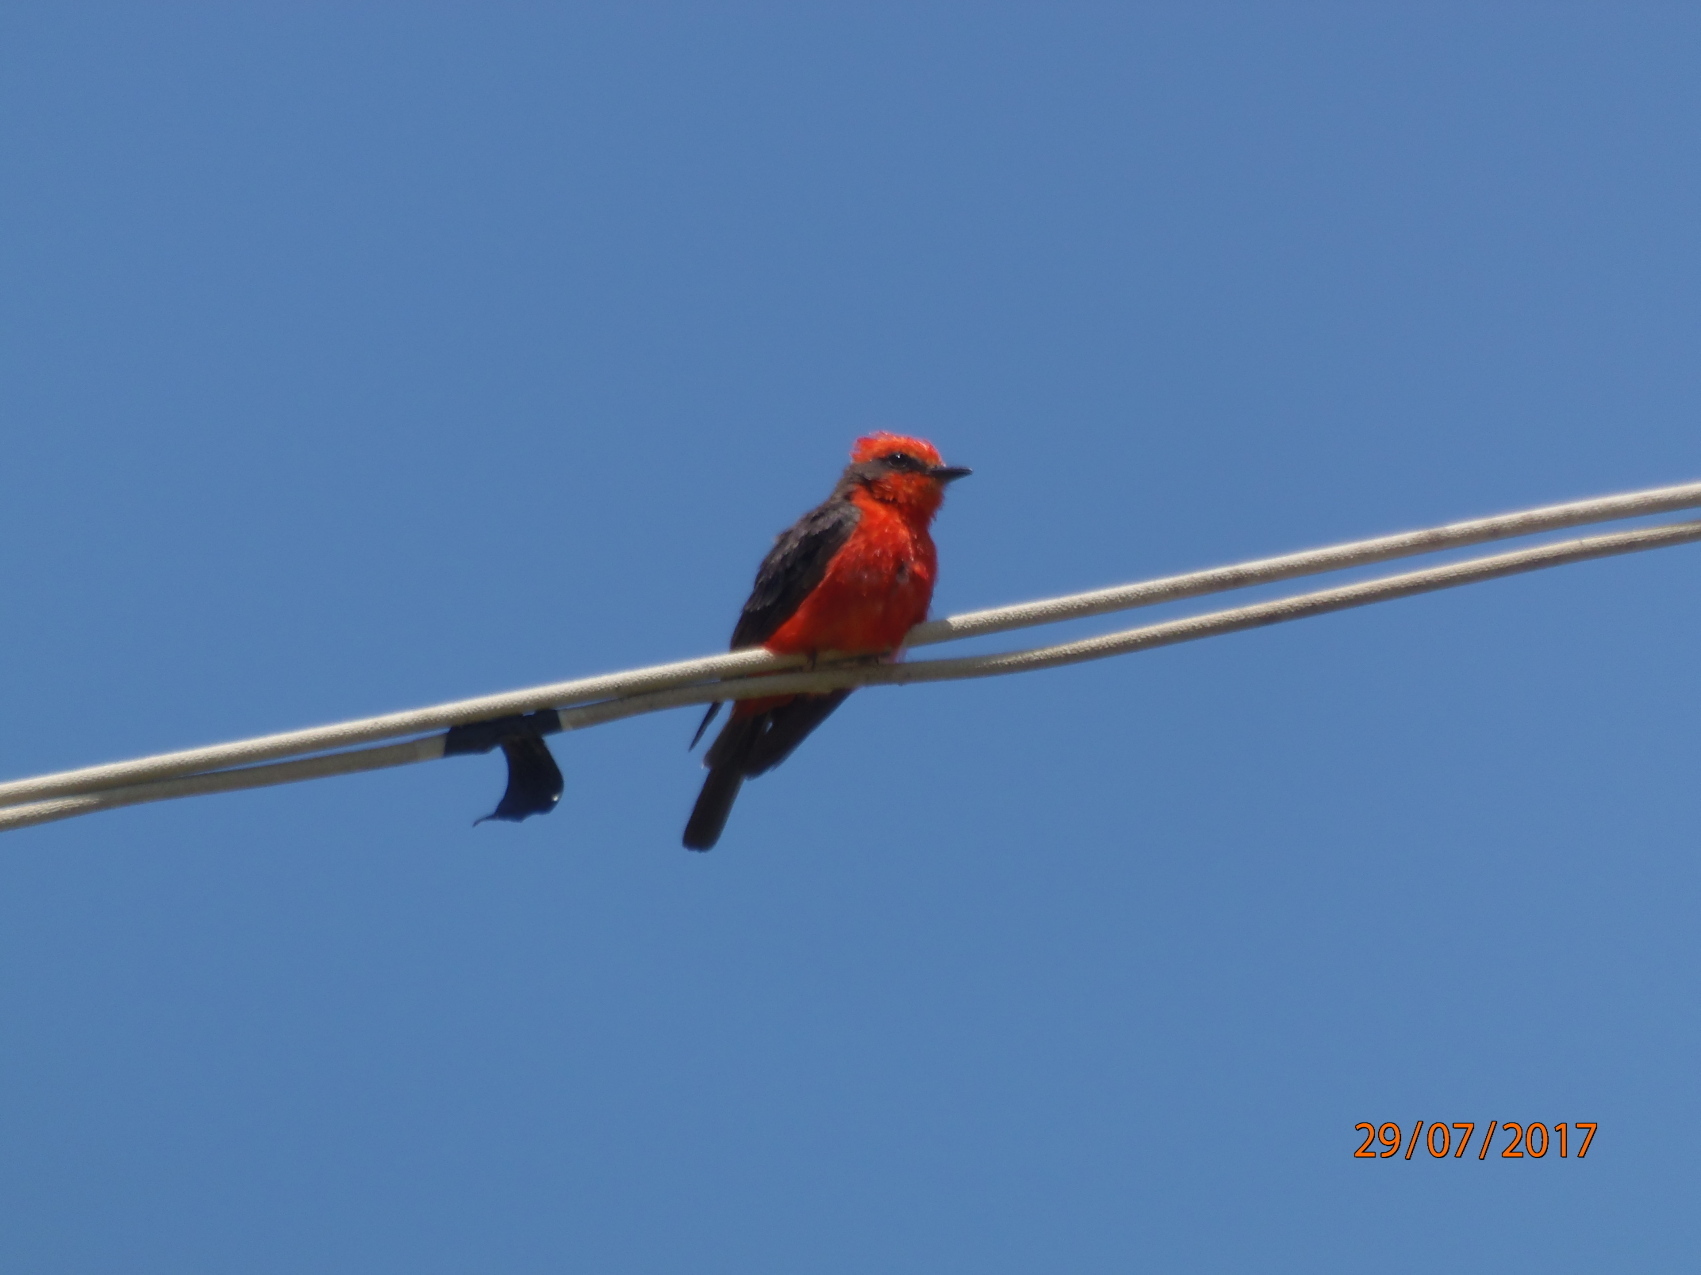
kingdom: Animalia
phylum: Chordata
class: Aves
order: Passeriformes
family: Tyrannidae
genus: Pyrocephalus
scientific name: Pyrocephalus rubinus
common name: Vermilion flycatcher
